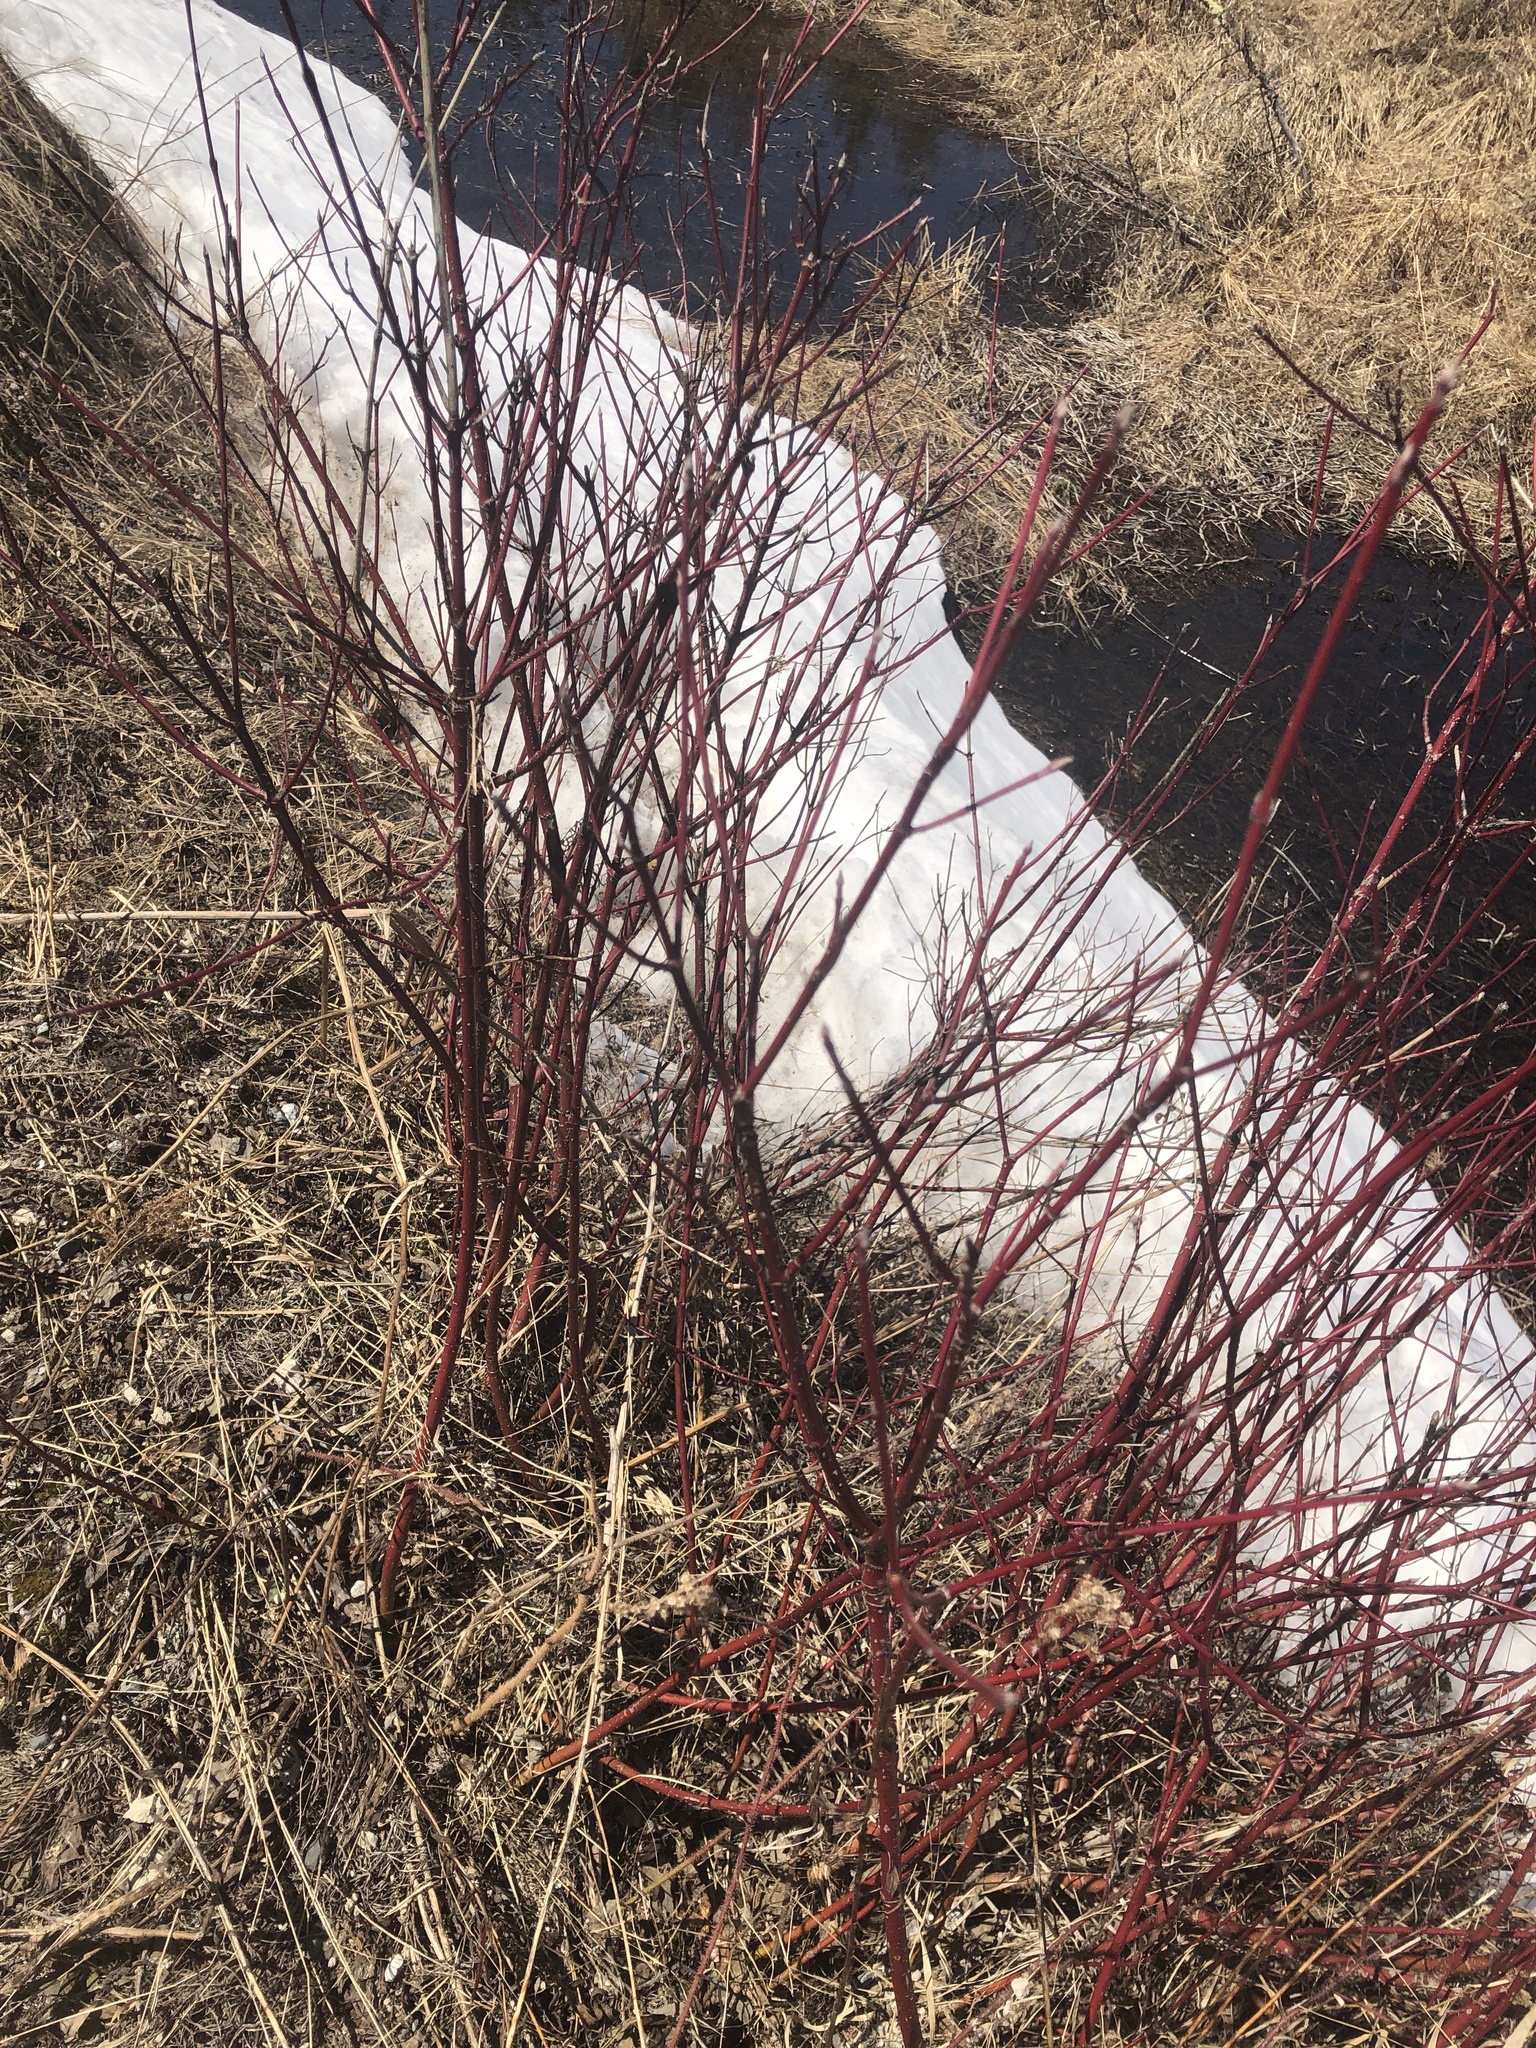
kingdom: Plantae
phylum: Tracheophyta
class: Magnoliopsida
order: Cornales
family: Cornaceae
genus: Cornus
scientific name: Cornus sericea
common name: Red-osier dogwood
